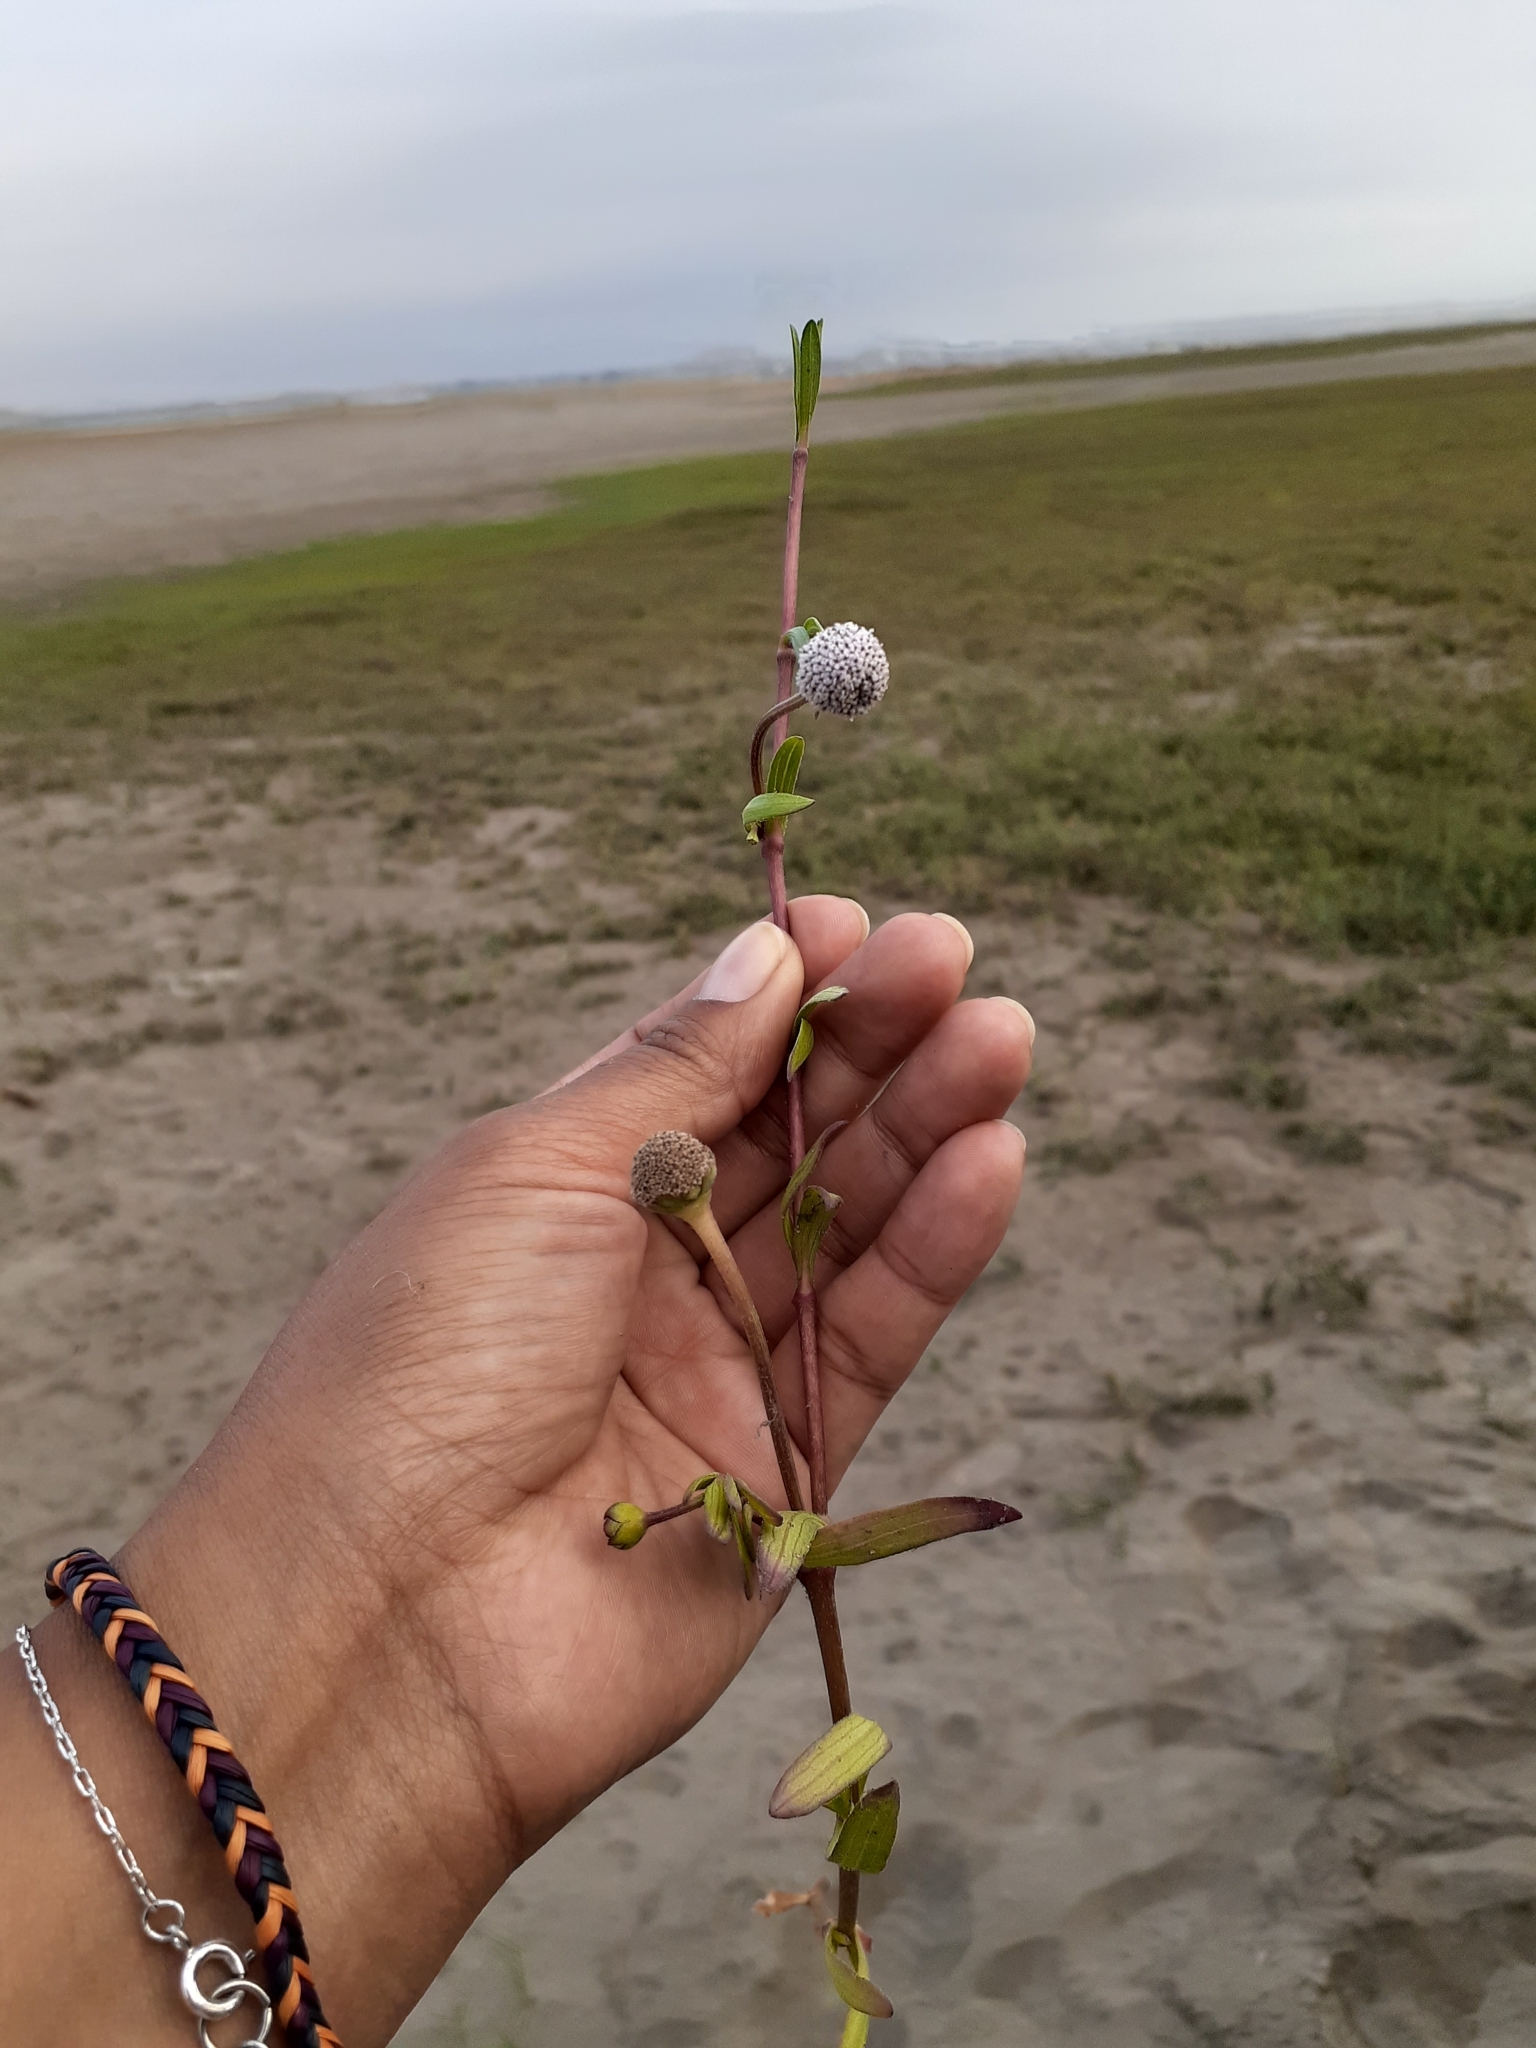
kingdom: Plantae
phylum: Tracheophyta
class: Magnoliopsida
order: Asterales
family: Asteraceae
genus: Spilanthes
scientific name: Spilanthes leiocarpa
